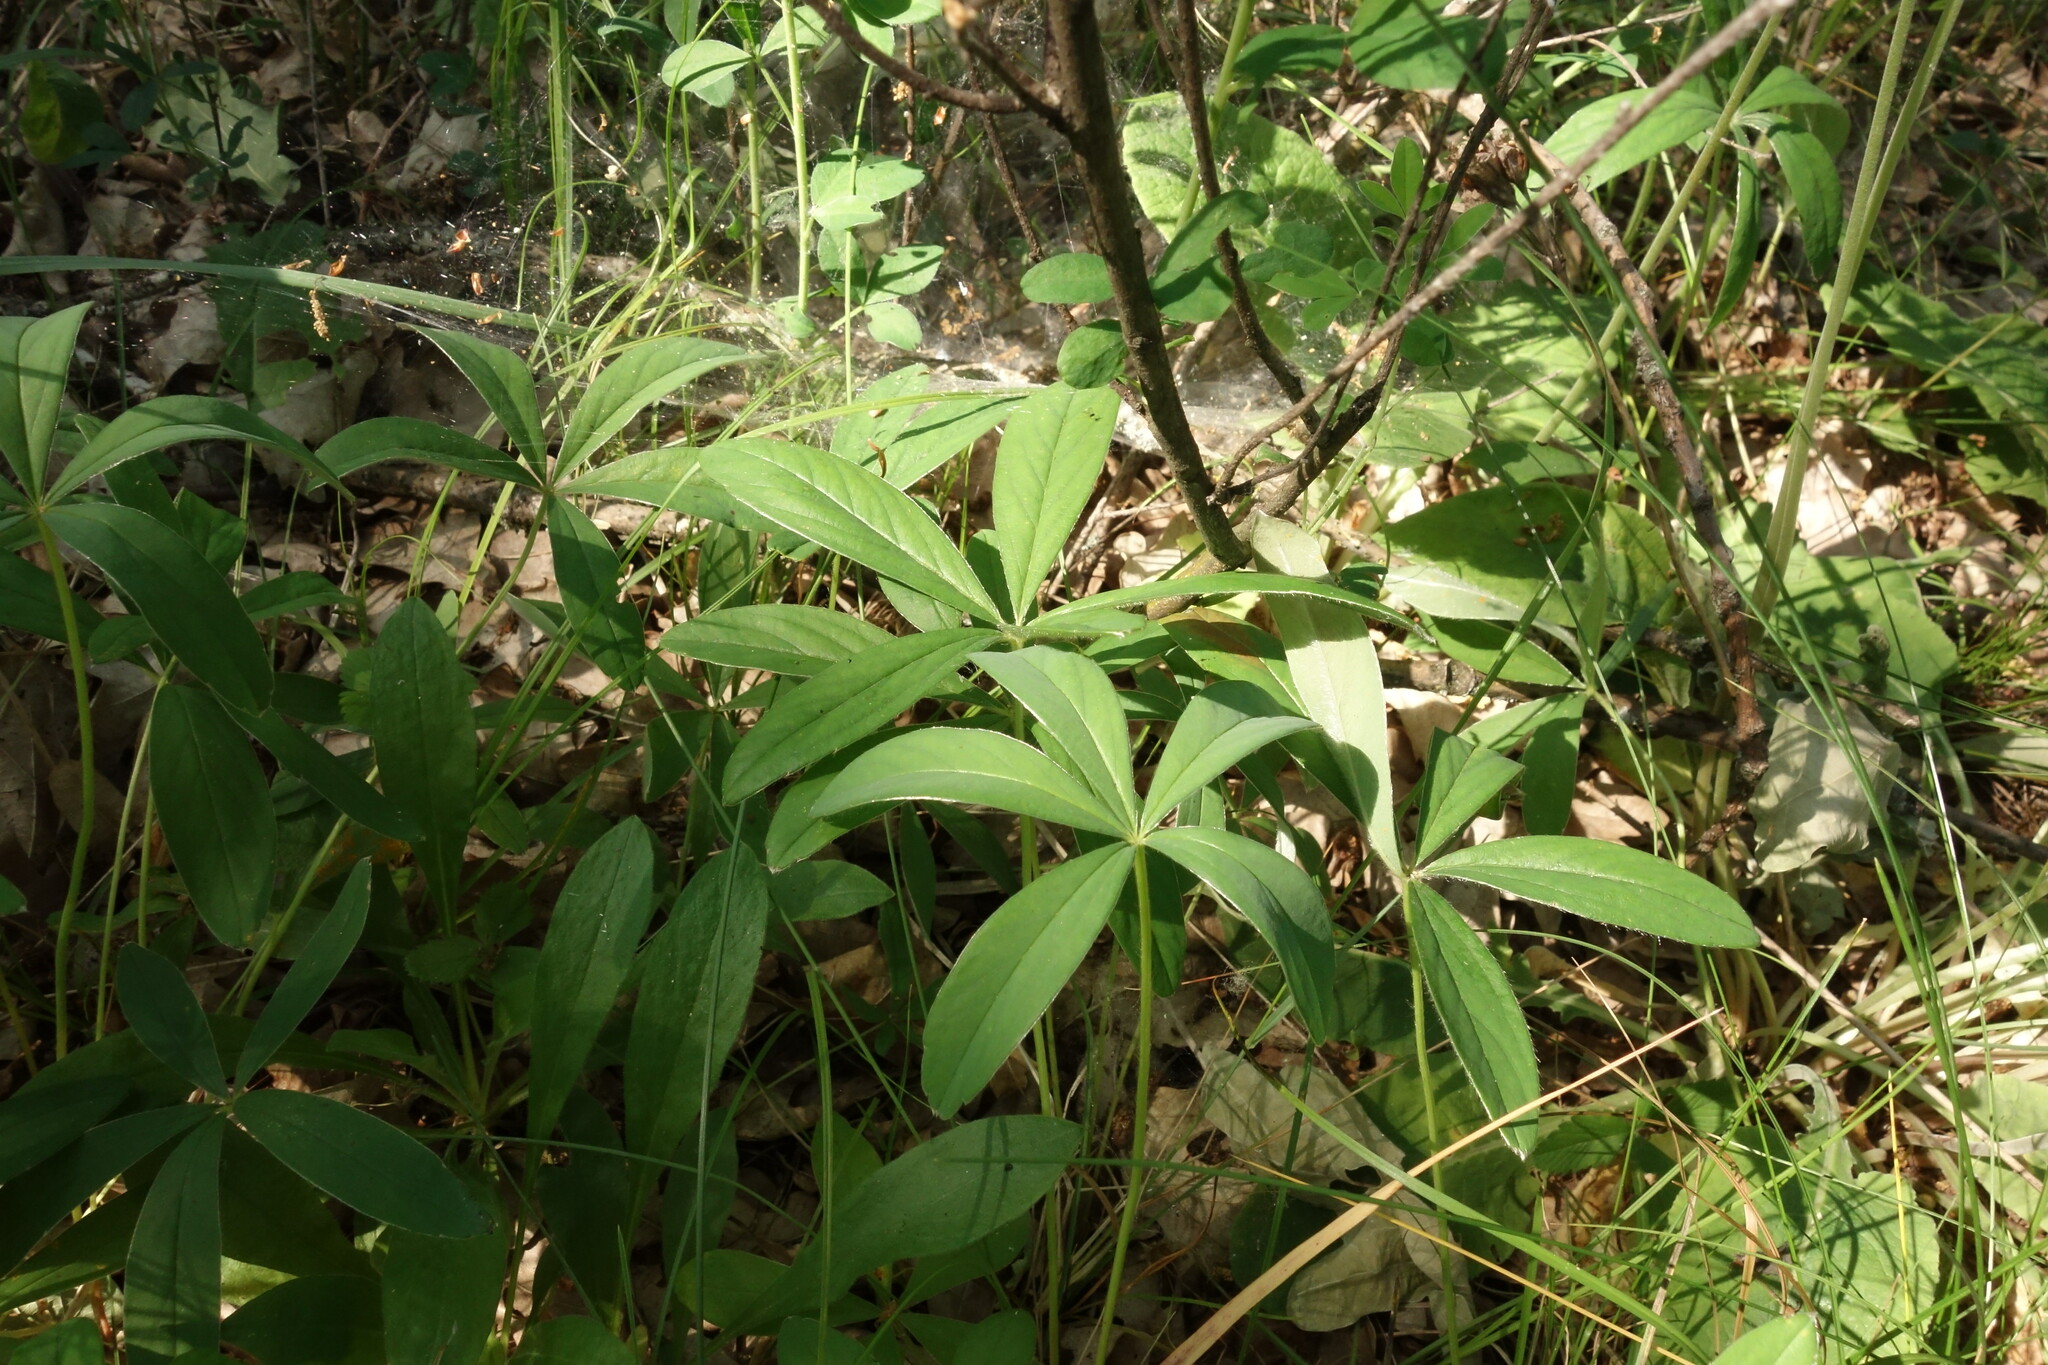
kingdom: Plantae
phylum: Tracheophyta
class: Magnoliopsida
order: Rosales
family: Rosaceae
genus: Potentilla
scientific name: Potentilla alba
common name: White cinquefoil
